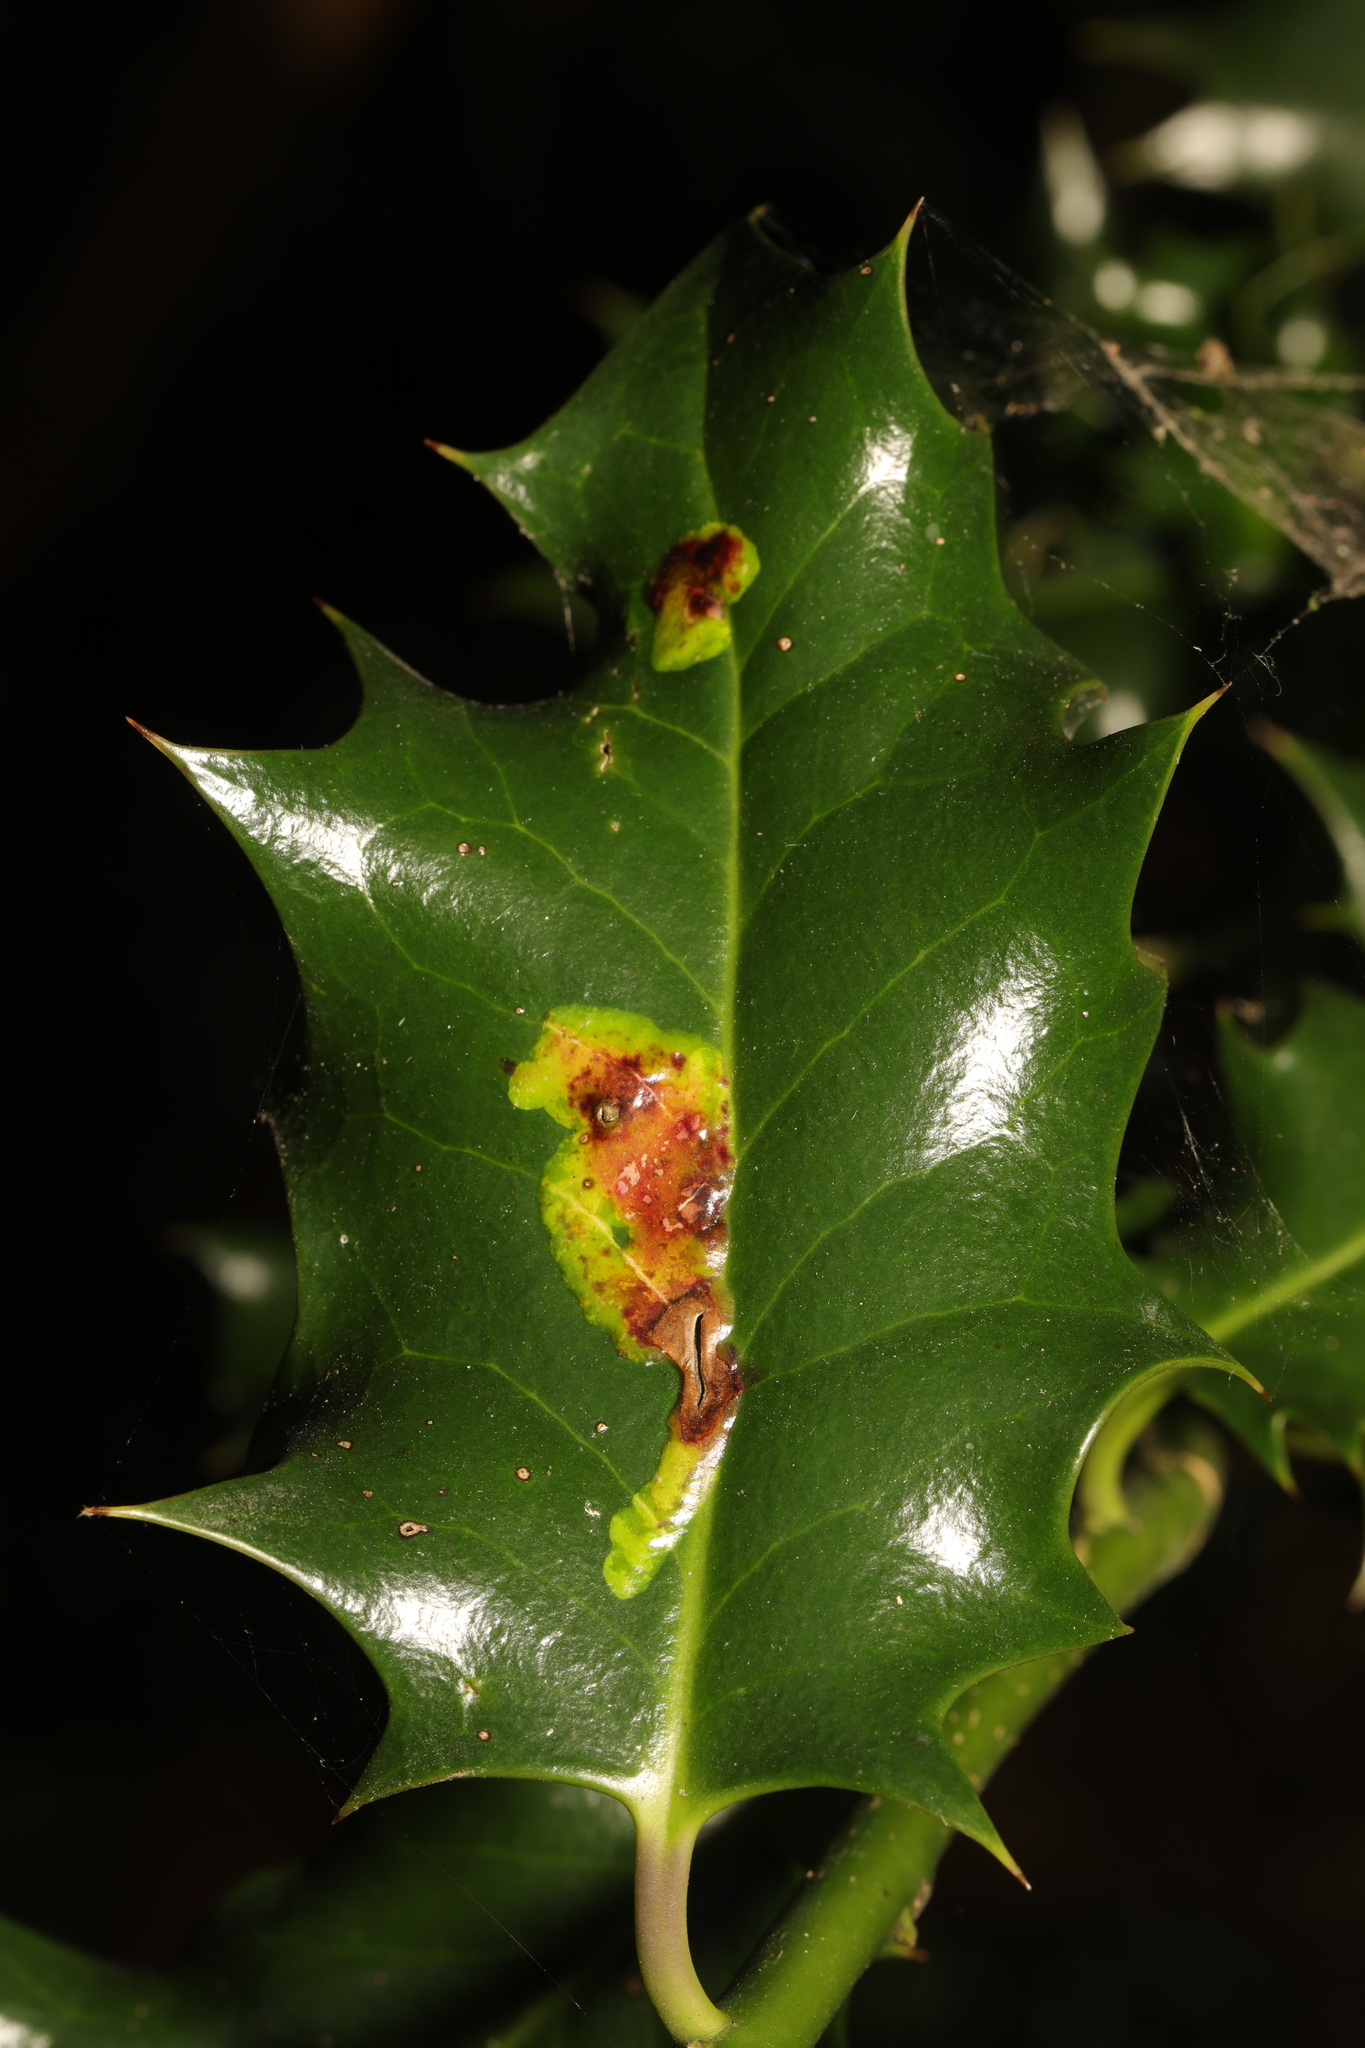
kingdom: Animalia
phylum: Arthropoda
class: Insecta
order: Diptera
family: Agromyzidae
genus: Phytomyza
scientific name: Phytomyza ilicis
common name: Holly leafminer
